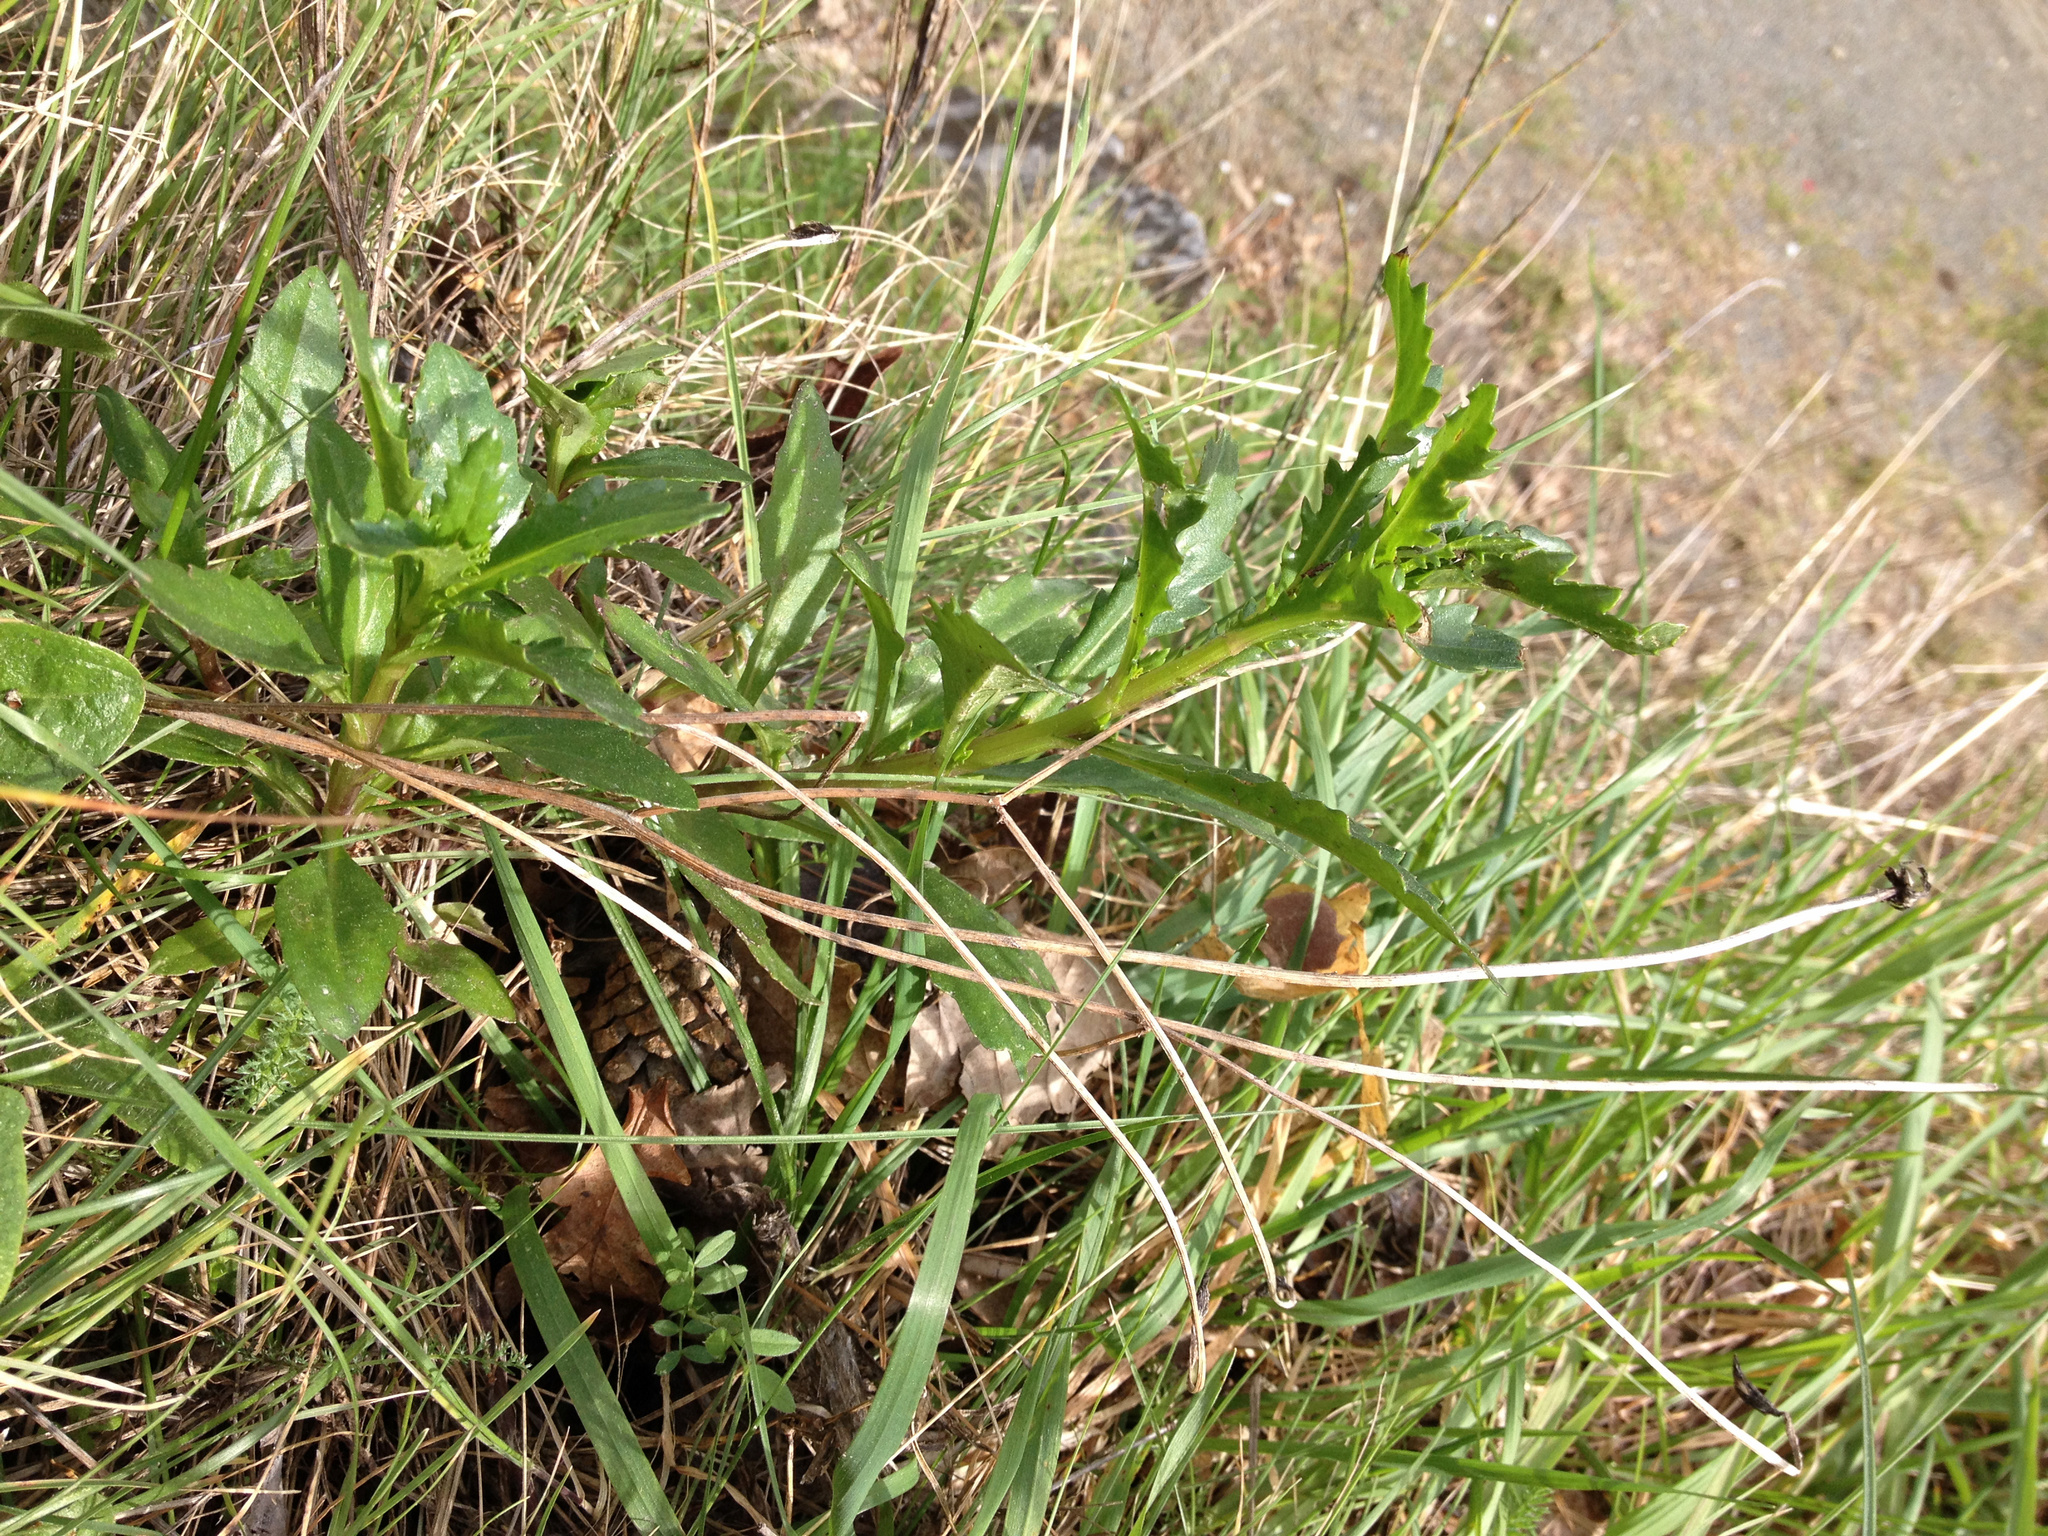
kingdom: Plantae
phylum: Tracheophyta
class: Magnoliopsida
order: Asterales
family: Asteraceae
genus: Senecio
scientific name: Senecio glomeratus
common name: Cutleaf burnweed
